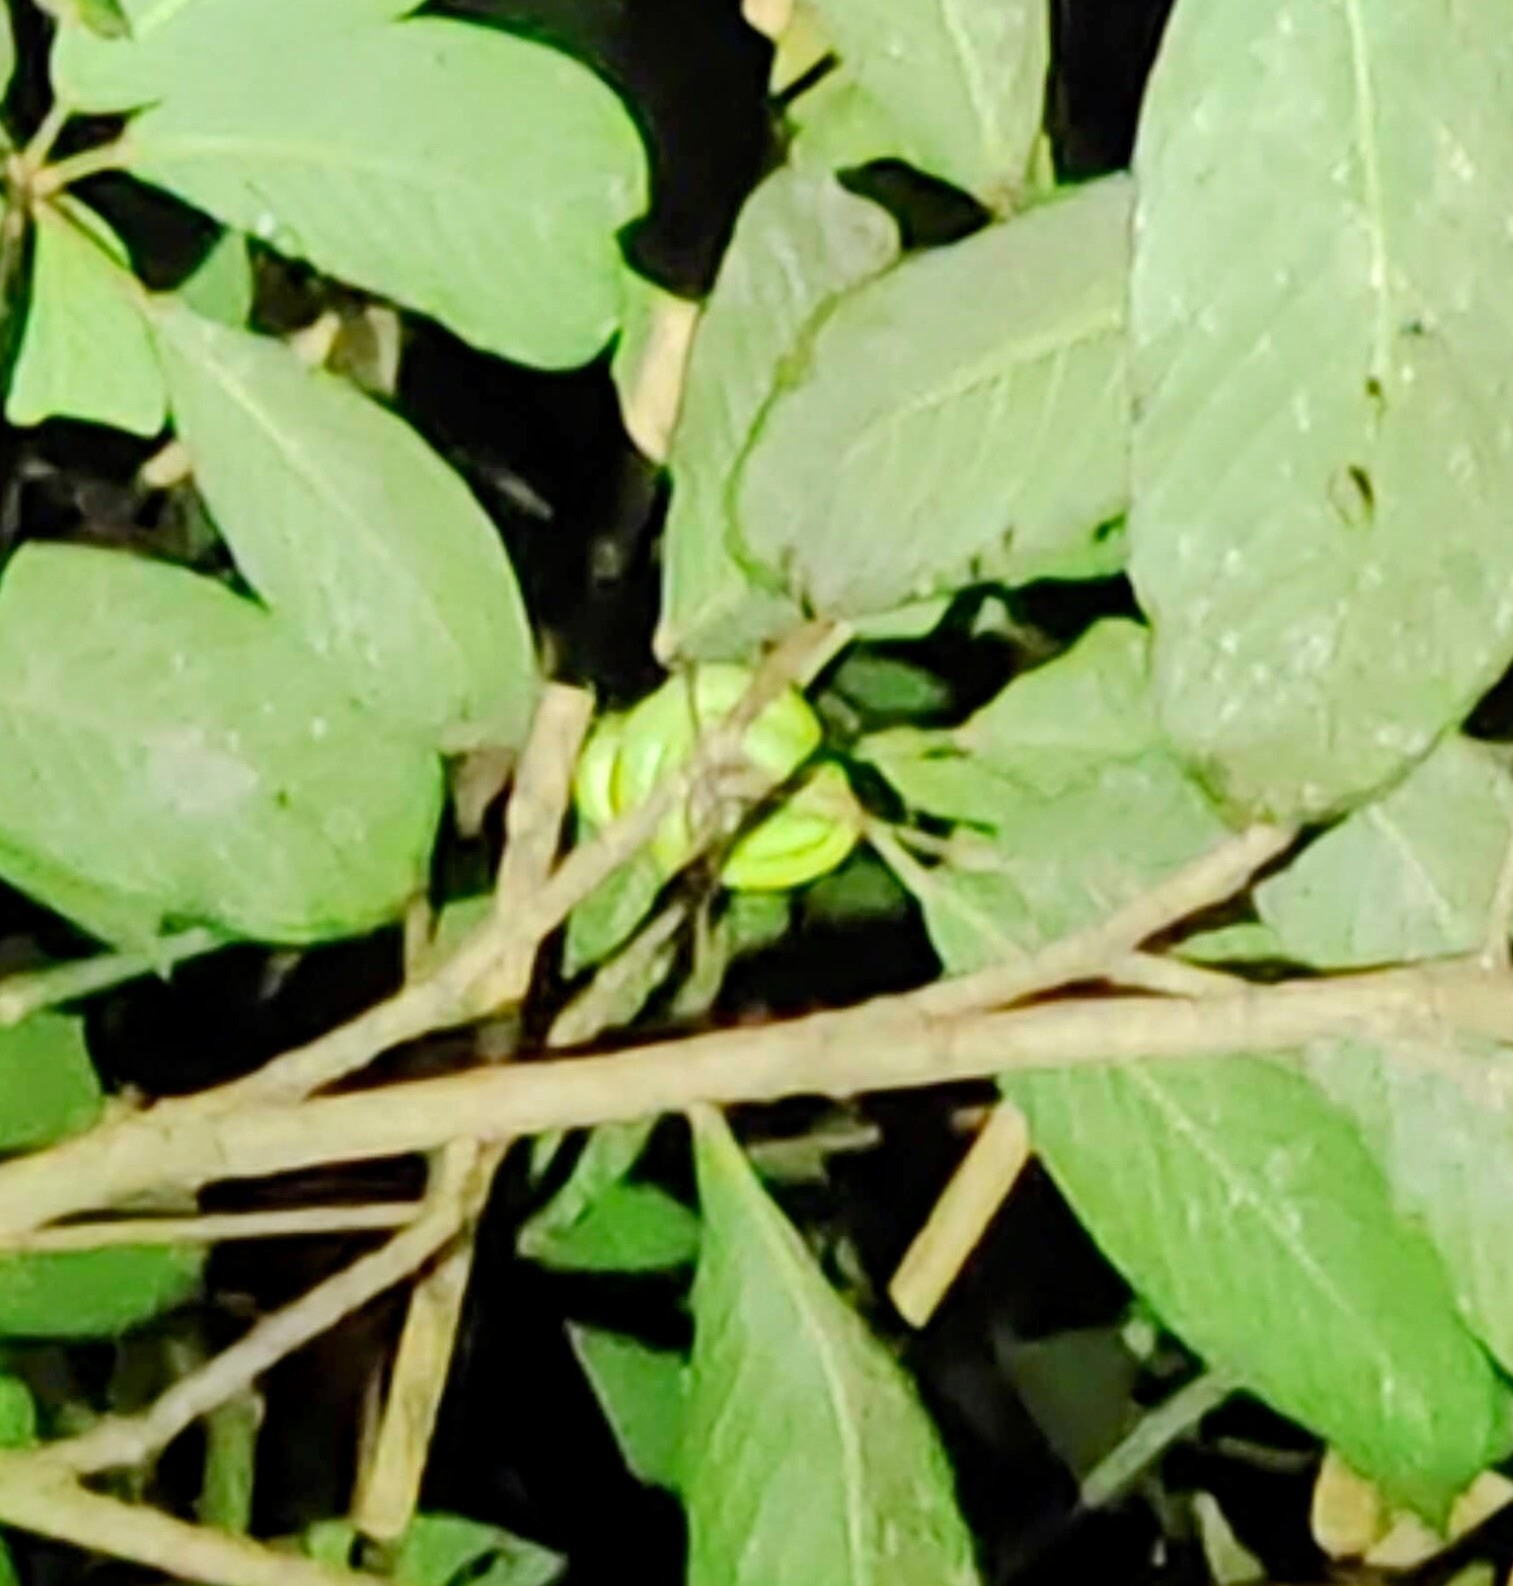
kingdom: Animalia
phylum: Chordata
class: Squamata
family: Colubridae
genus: Gonyosoma
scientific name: Gonyosoma oxycephalum
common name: Red-tailed racer
